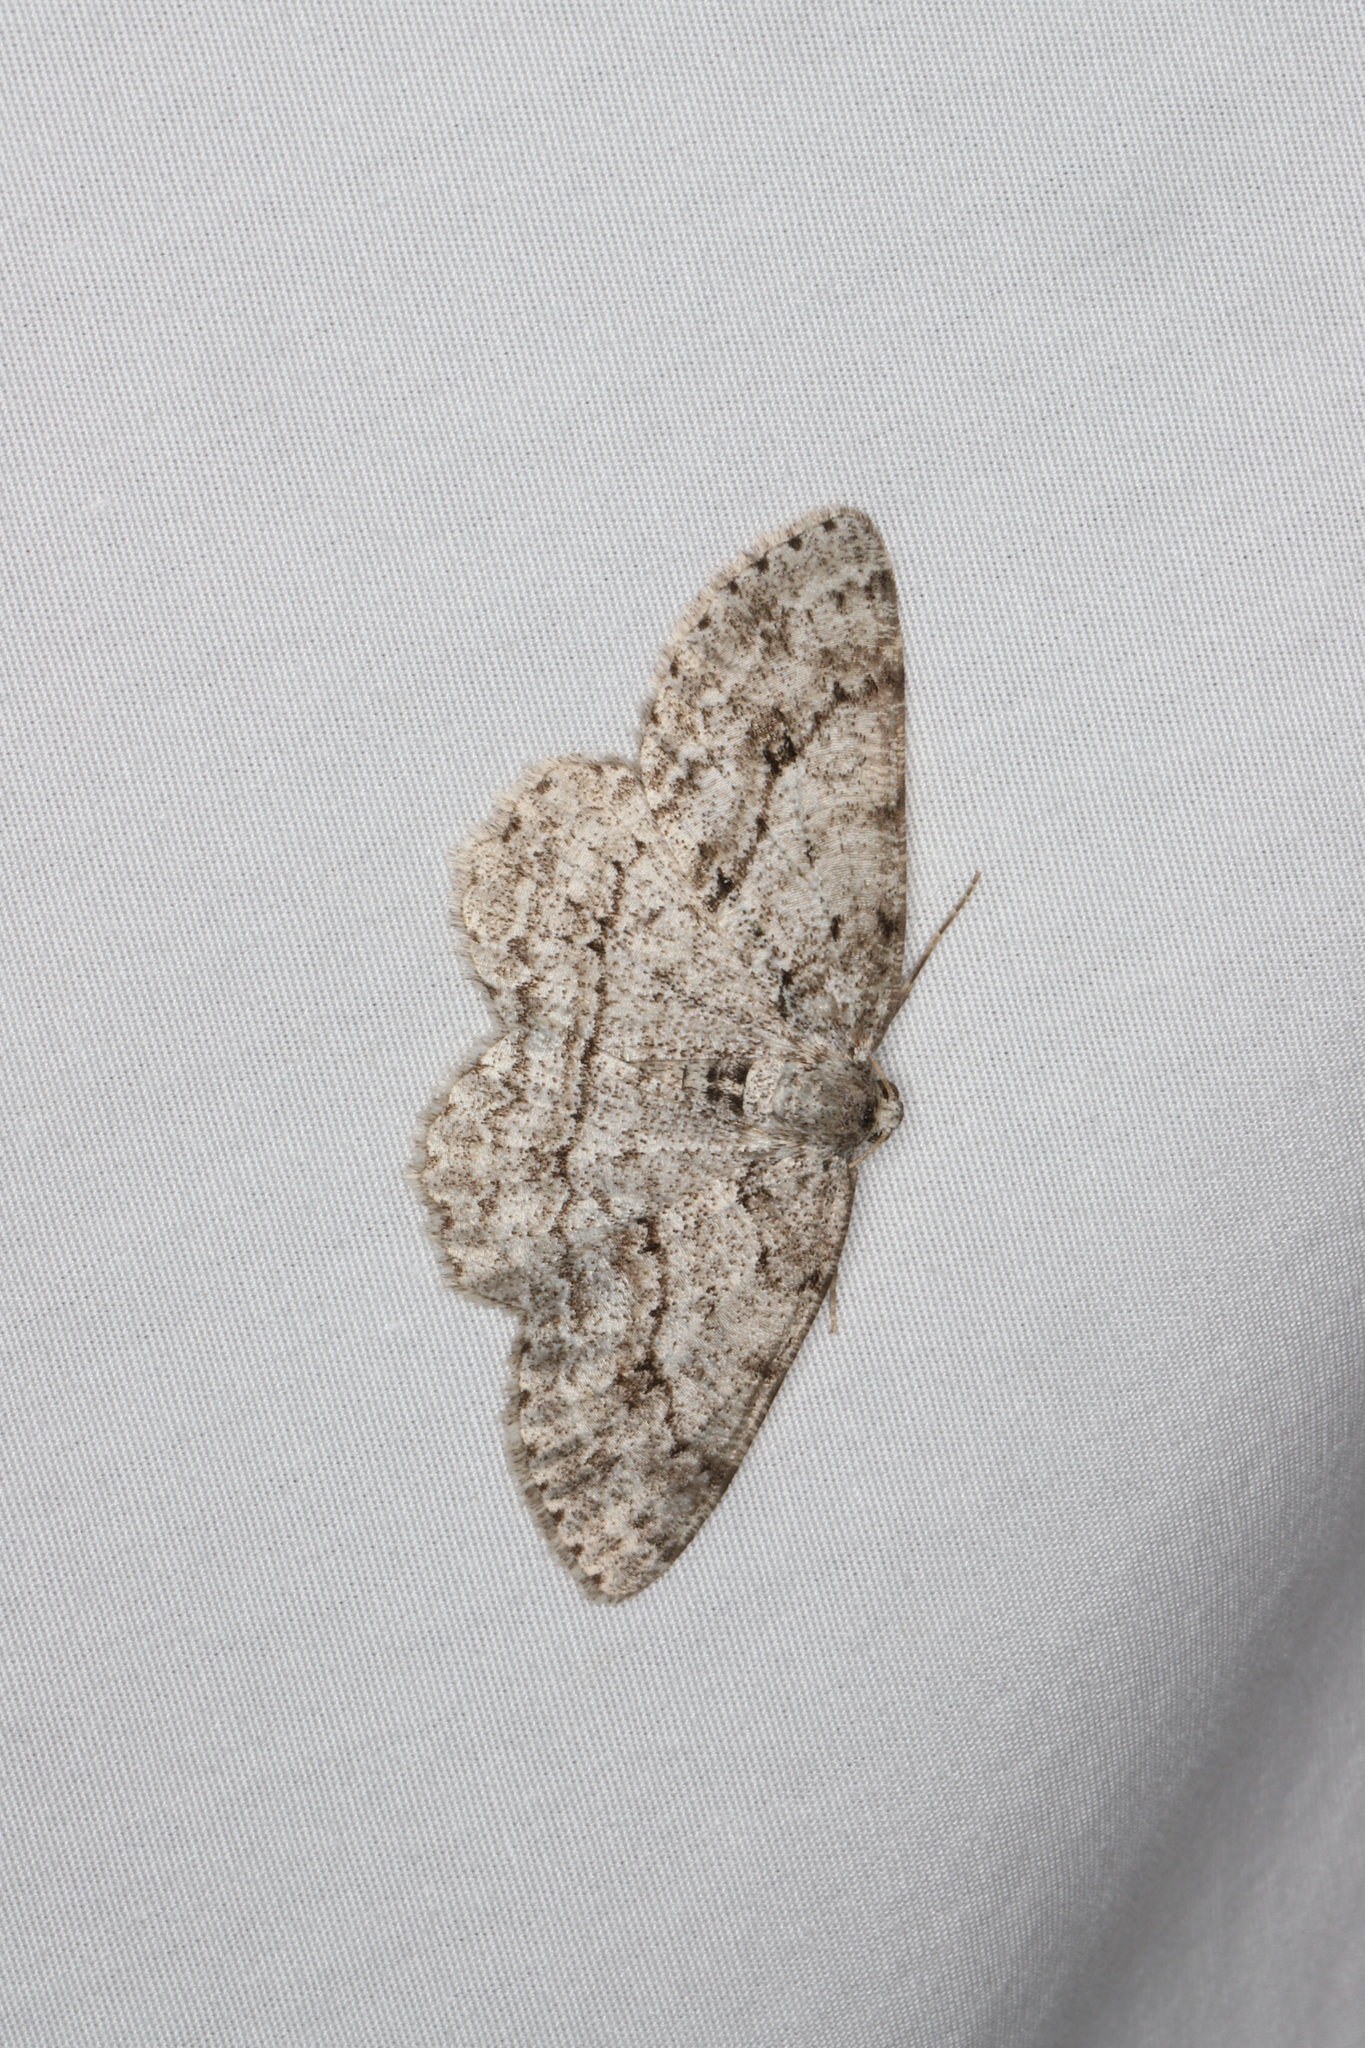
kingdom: Animalia
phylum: Arthropoda
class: Insecta
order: Lepidoptera
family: Geometridae
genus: Ectropis
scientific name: Ectropis crepuscularia
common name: Engrailed
